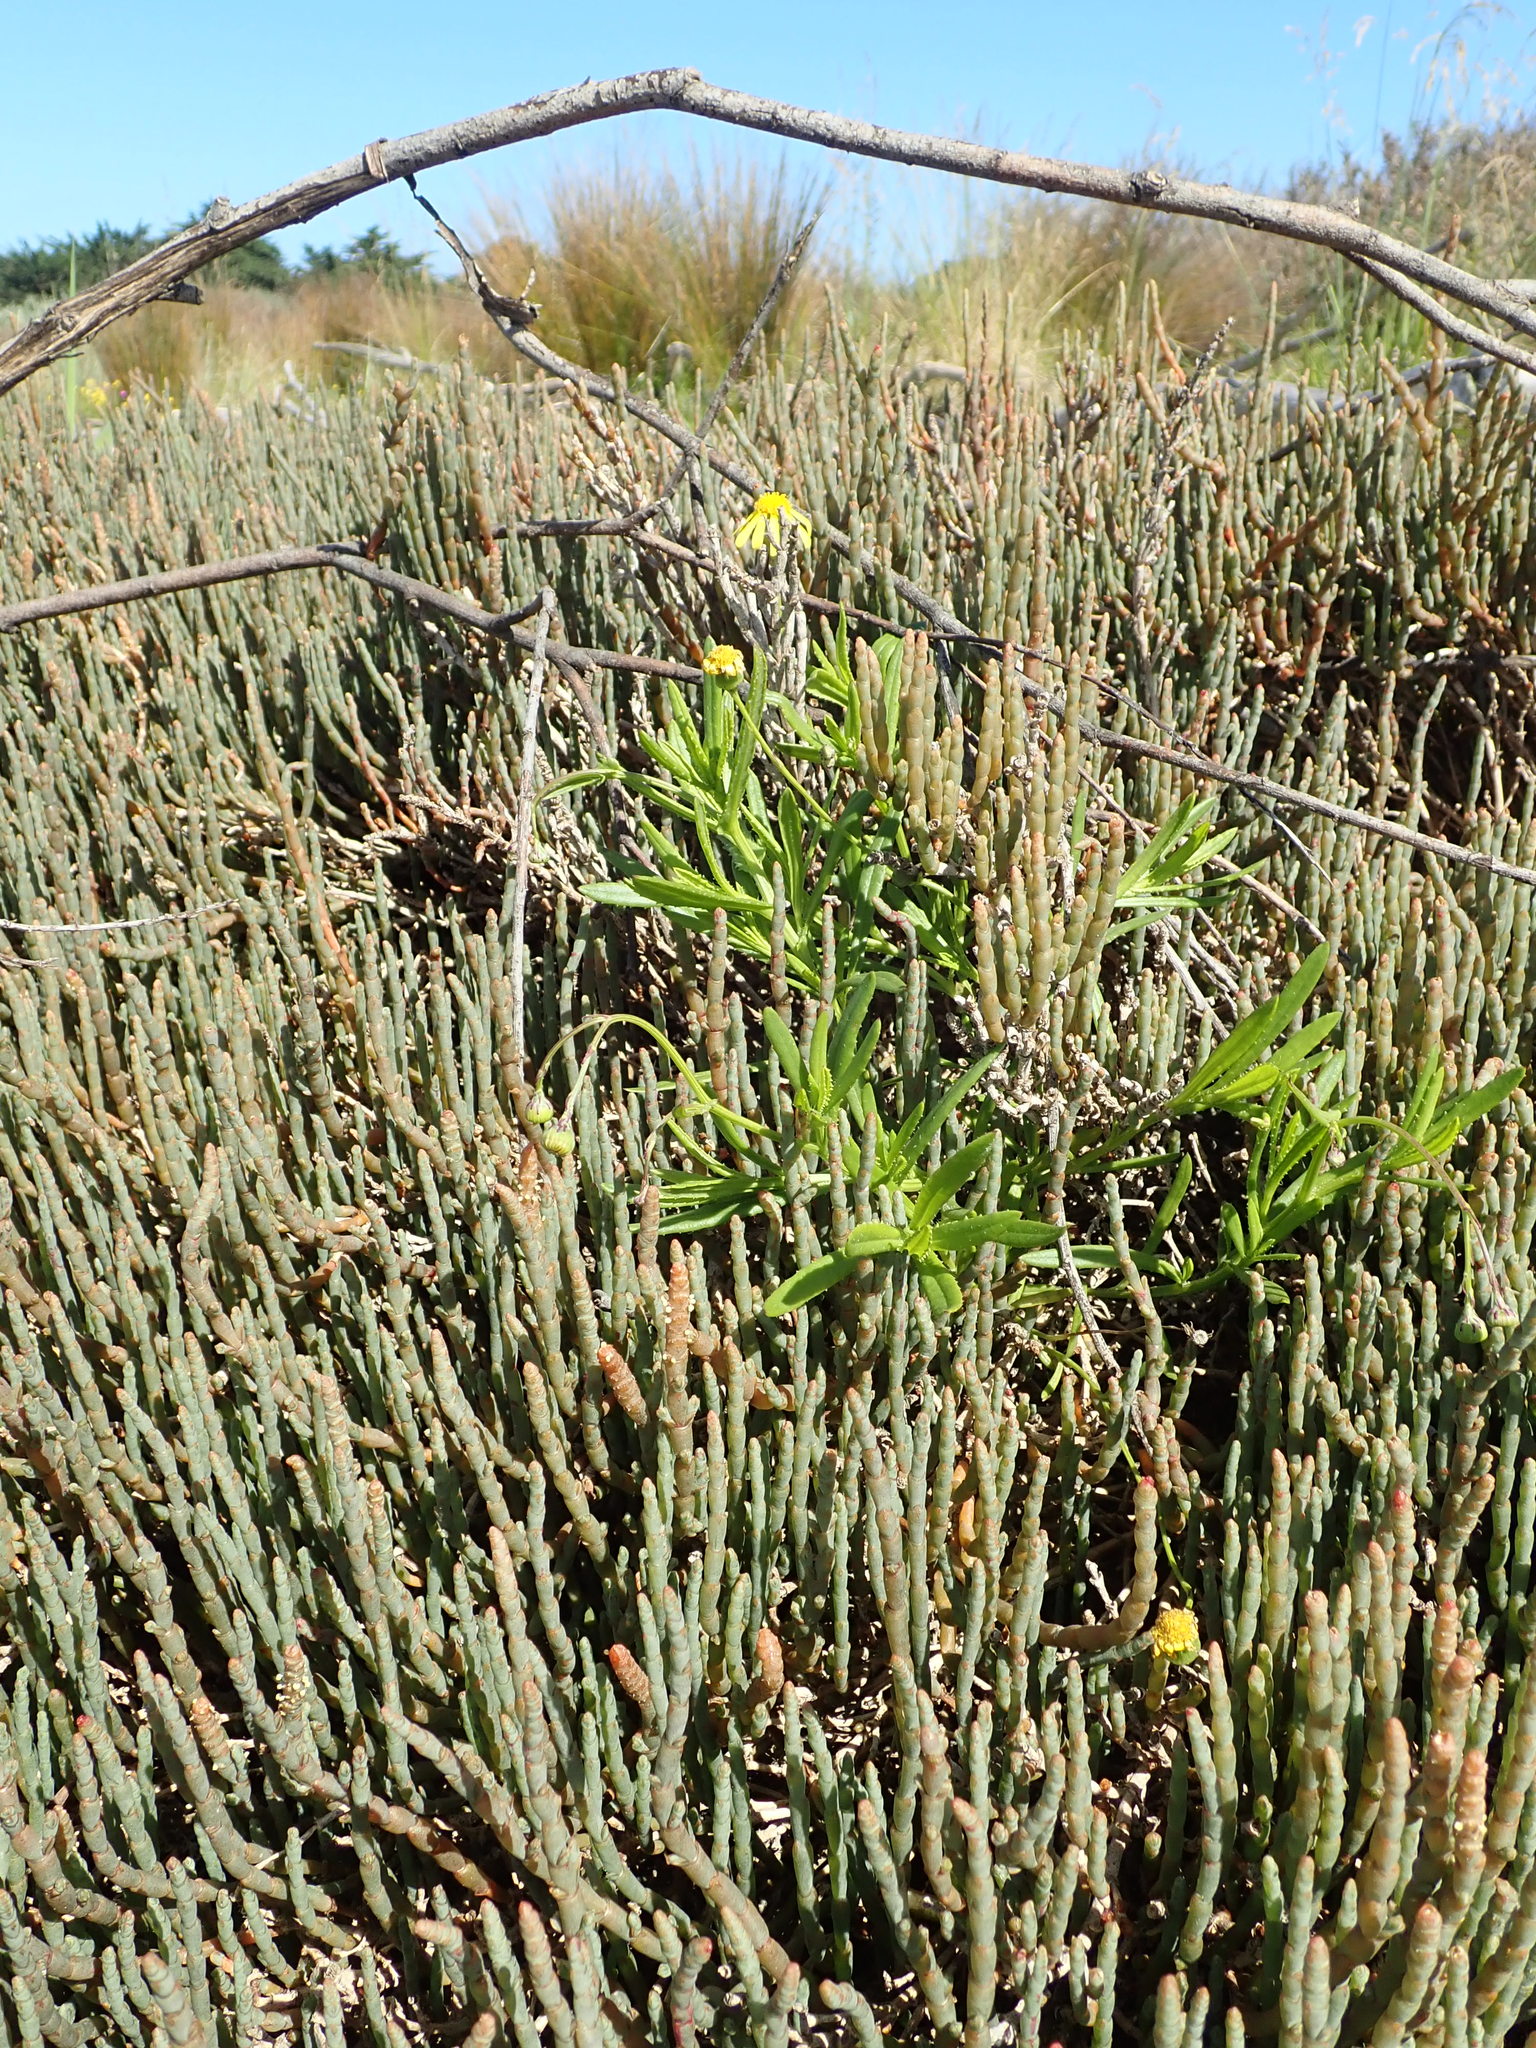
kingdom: Plantae
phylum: Tracheophyta
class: Magnoliopsida
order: Asterales
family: Asteraceae
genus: Senecio
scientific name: Senecio skirrhodon
